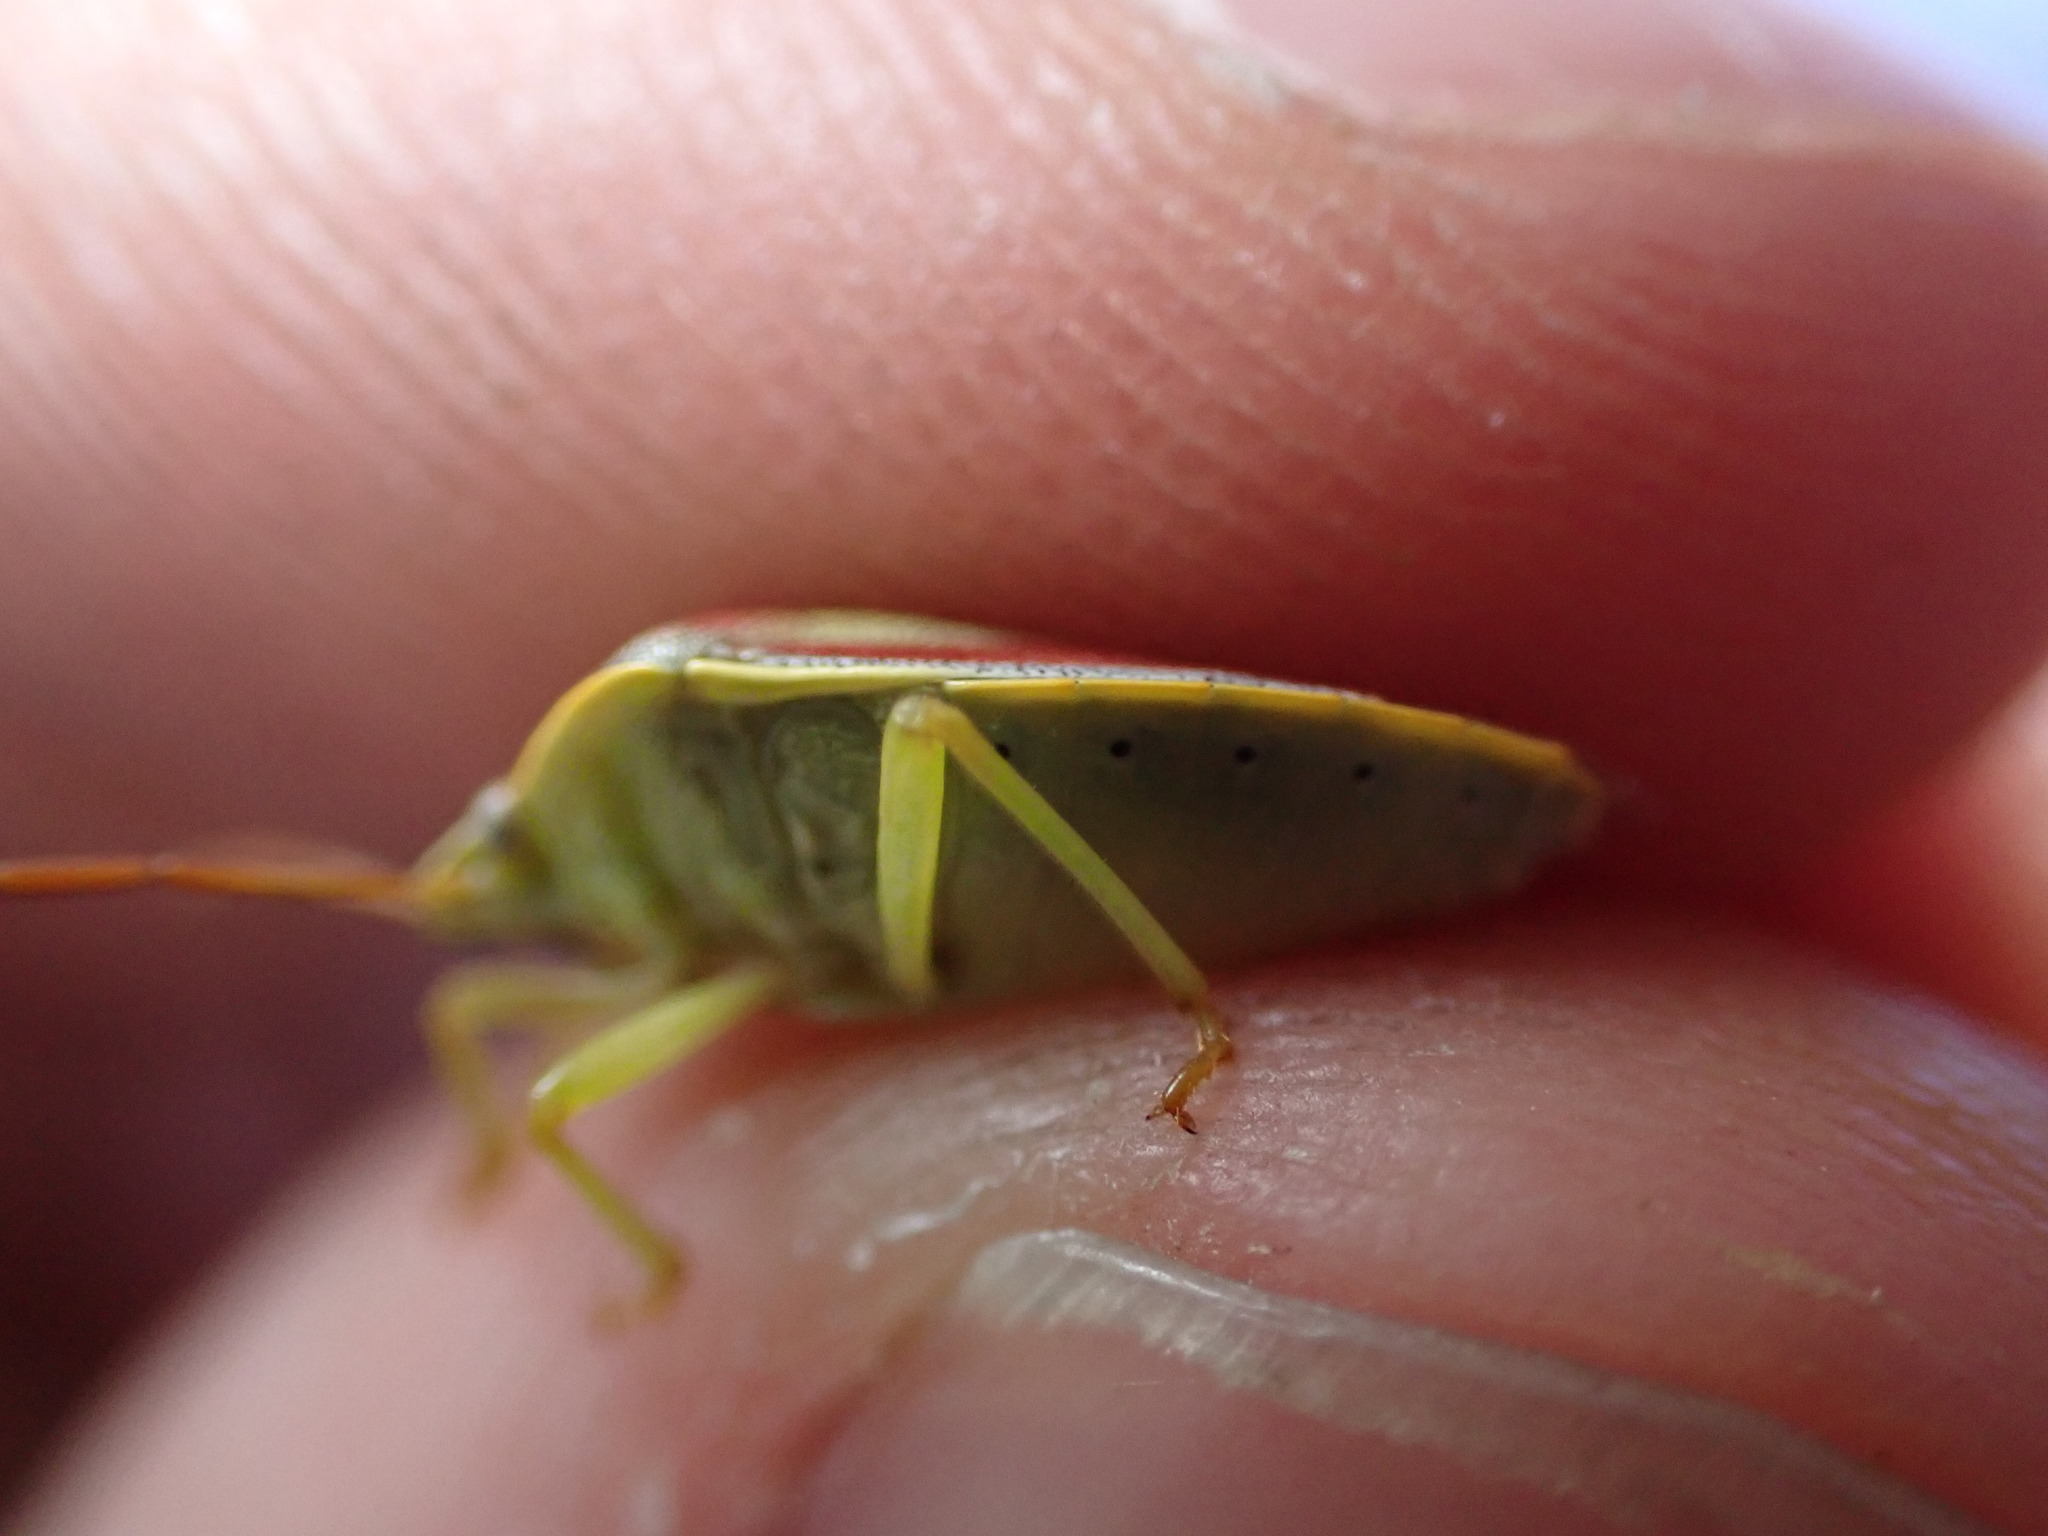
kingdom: Animalia
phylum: Arthropoda
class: Insecta
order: Hemiptera
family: Pentatomidae
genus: Piezodorus
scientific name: Piezodorus lituratus
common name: Stink bug
